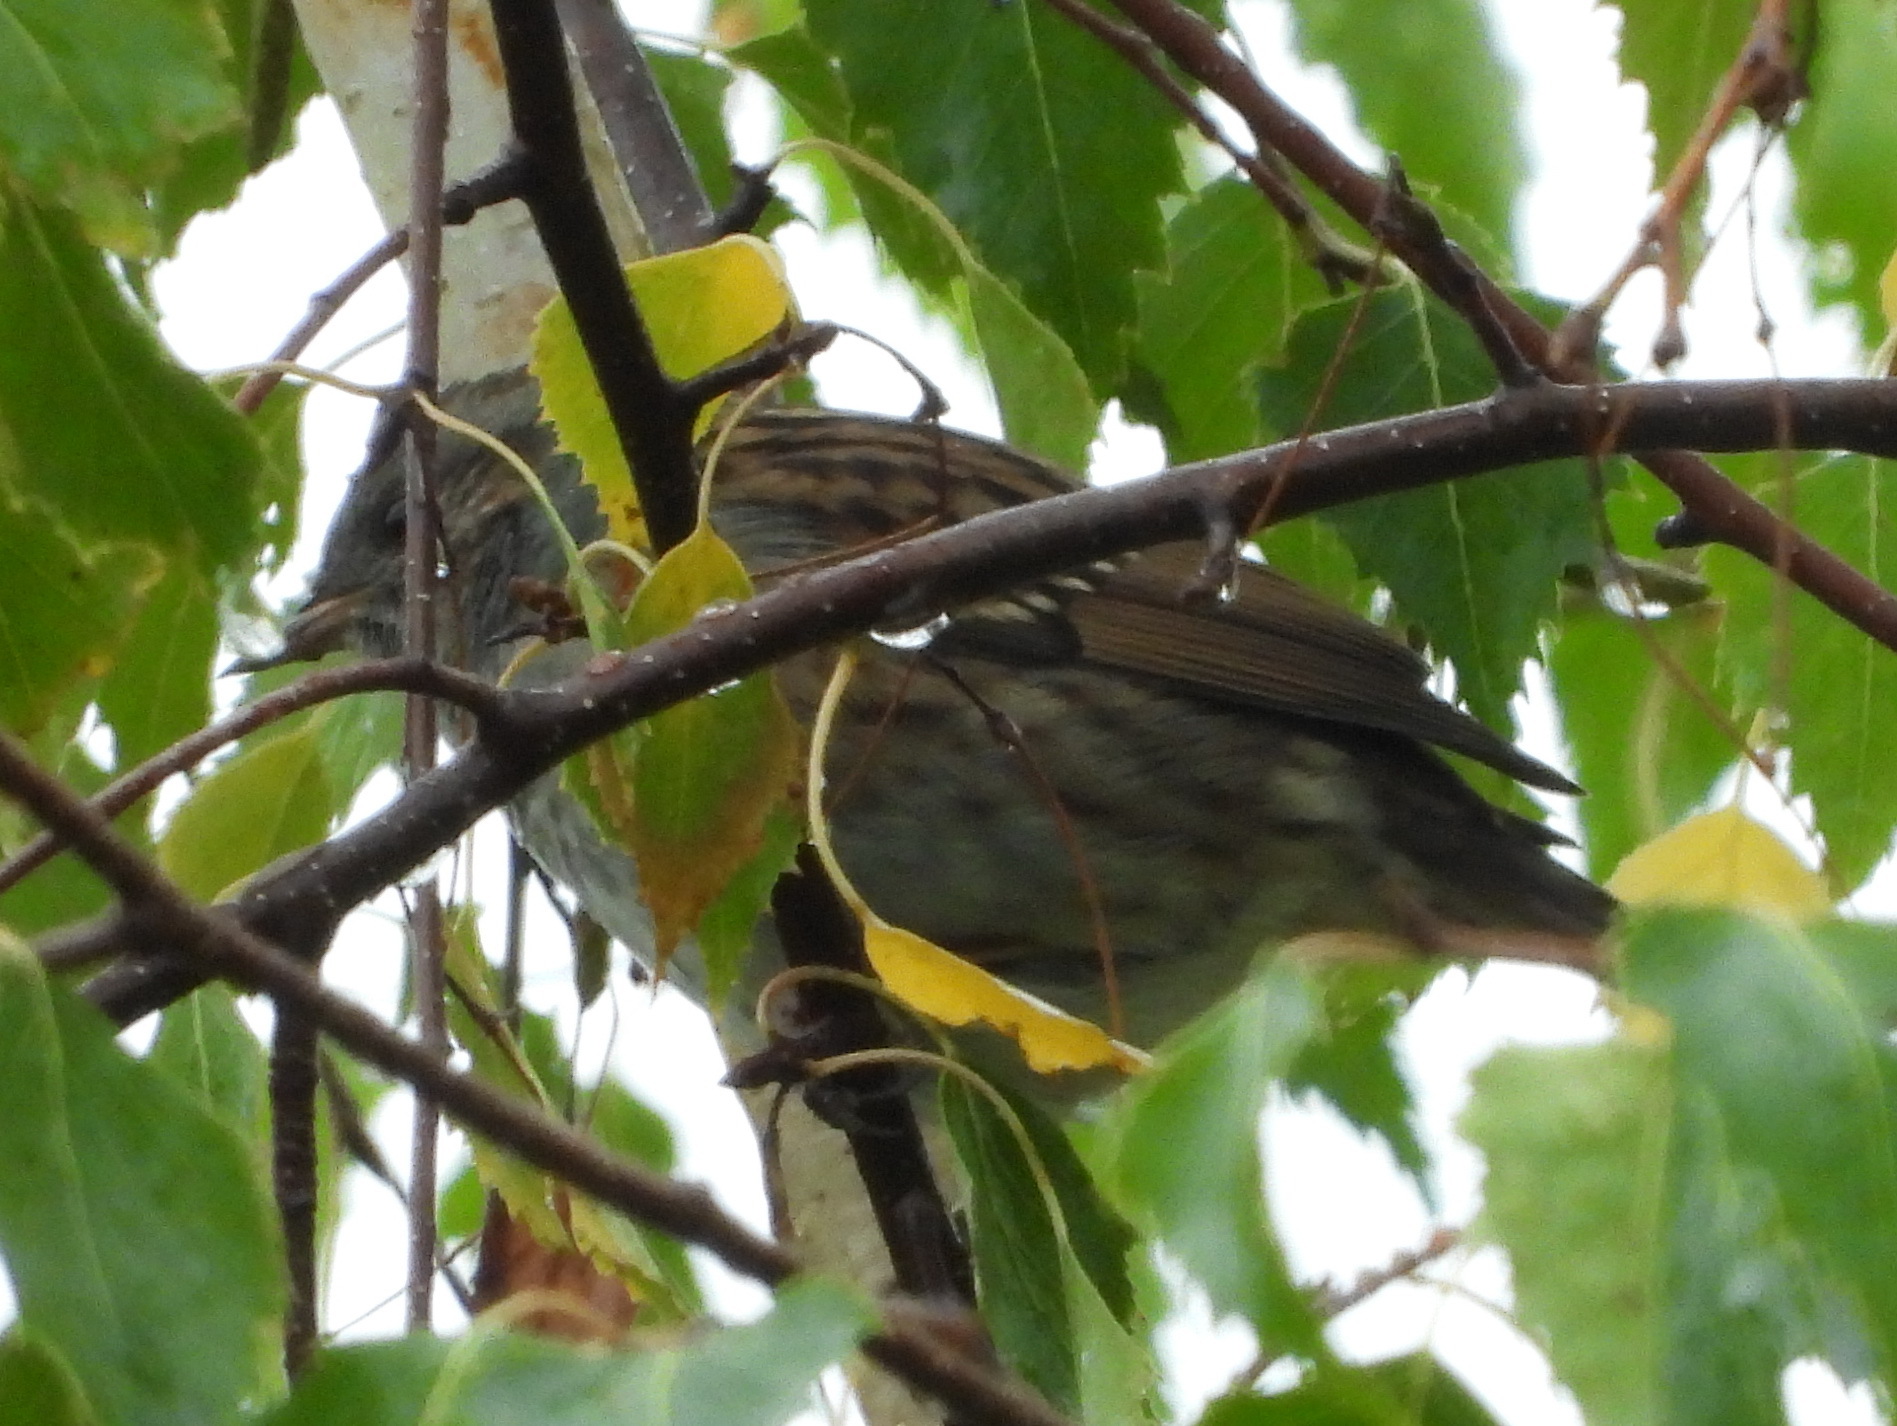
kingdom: Animalia
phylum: Chordata
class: Aves
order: Passeriformes
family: Prunellidae
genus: Prunella
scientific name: Prunella modularis
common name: Dunnock
